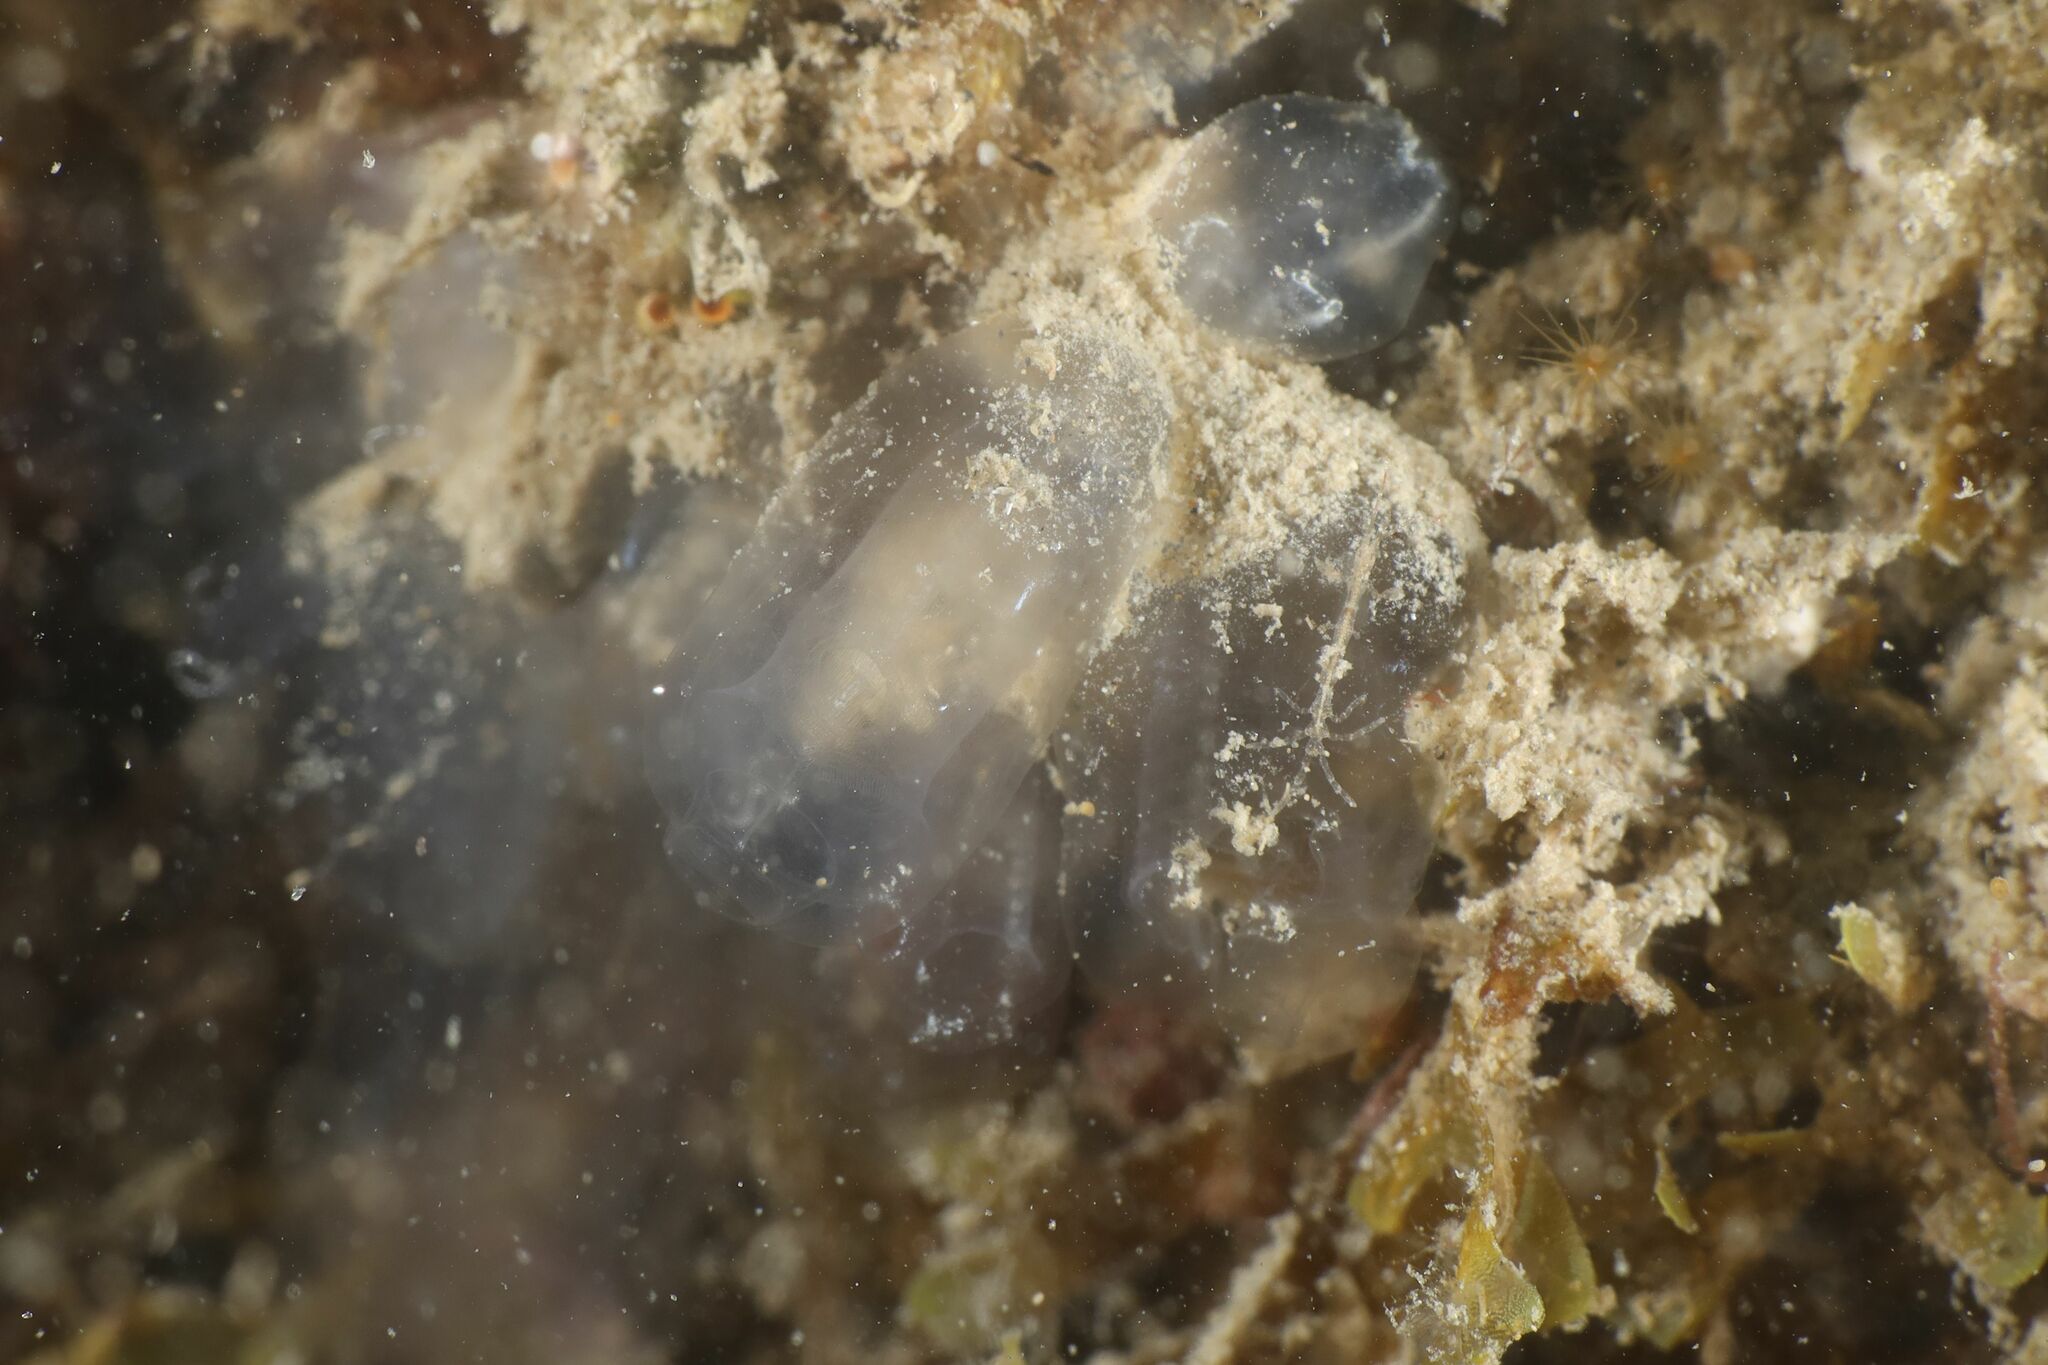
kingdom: Animalia
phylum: Chordata
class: Ascidiacea
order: Aplousobranchia
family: Clavelinidae
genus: Clavelina
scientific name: Clavelina oblonga
